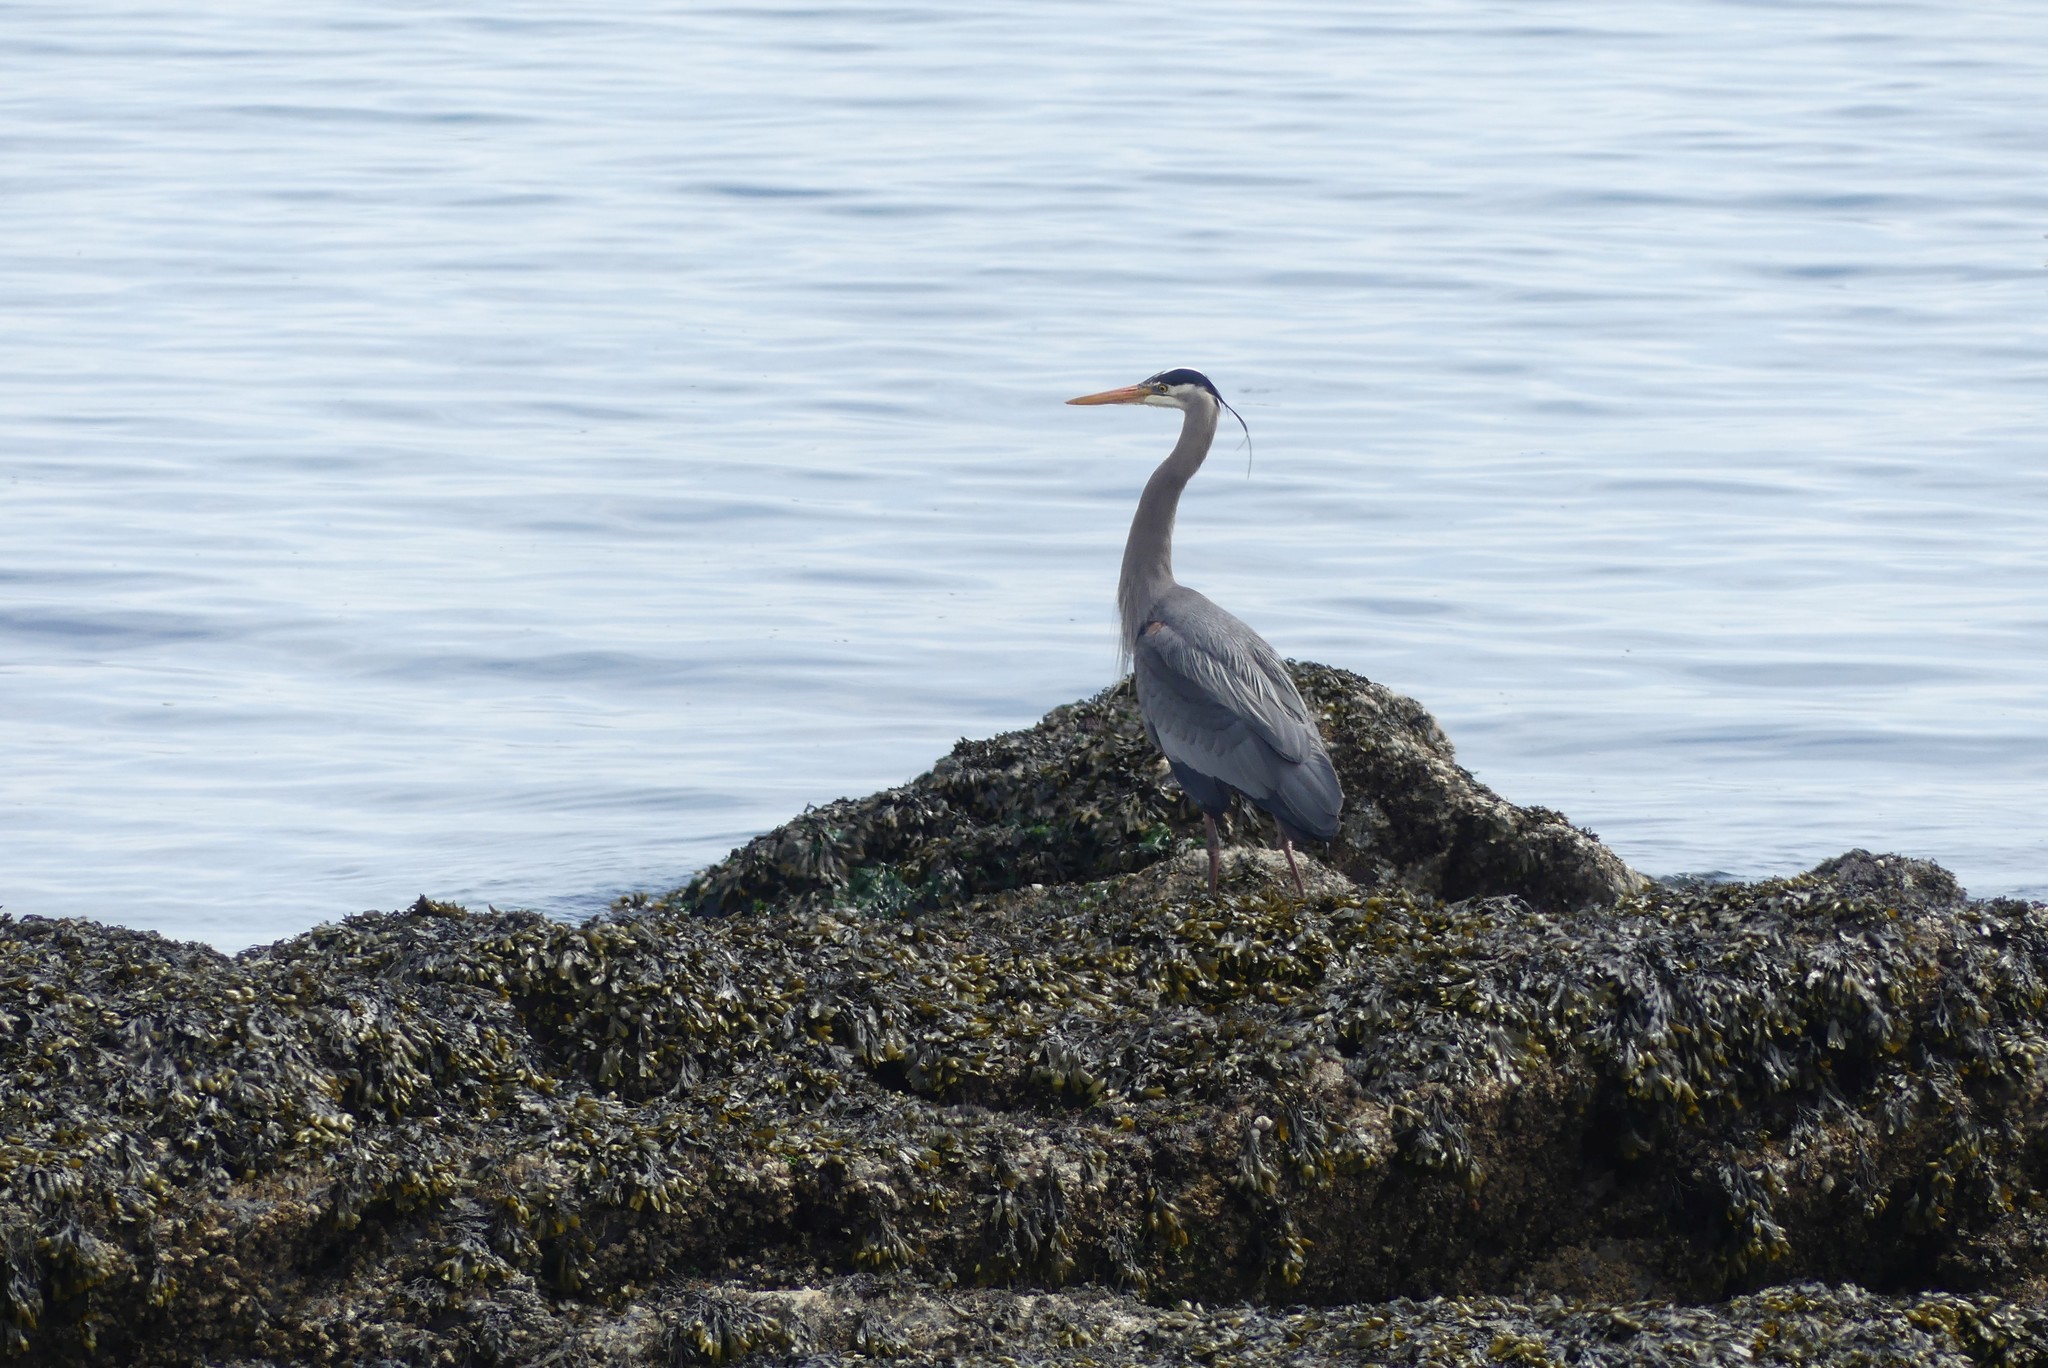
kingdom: Animalia
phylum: Chordata
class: Aves
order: Pelecaniformes
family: Ardeidae
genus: Ardea
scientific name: Ardea herodias
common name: Great blue heron
